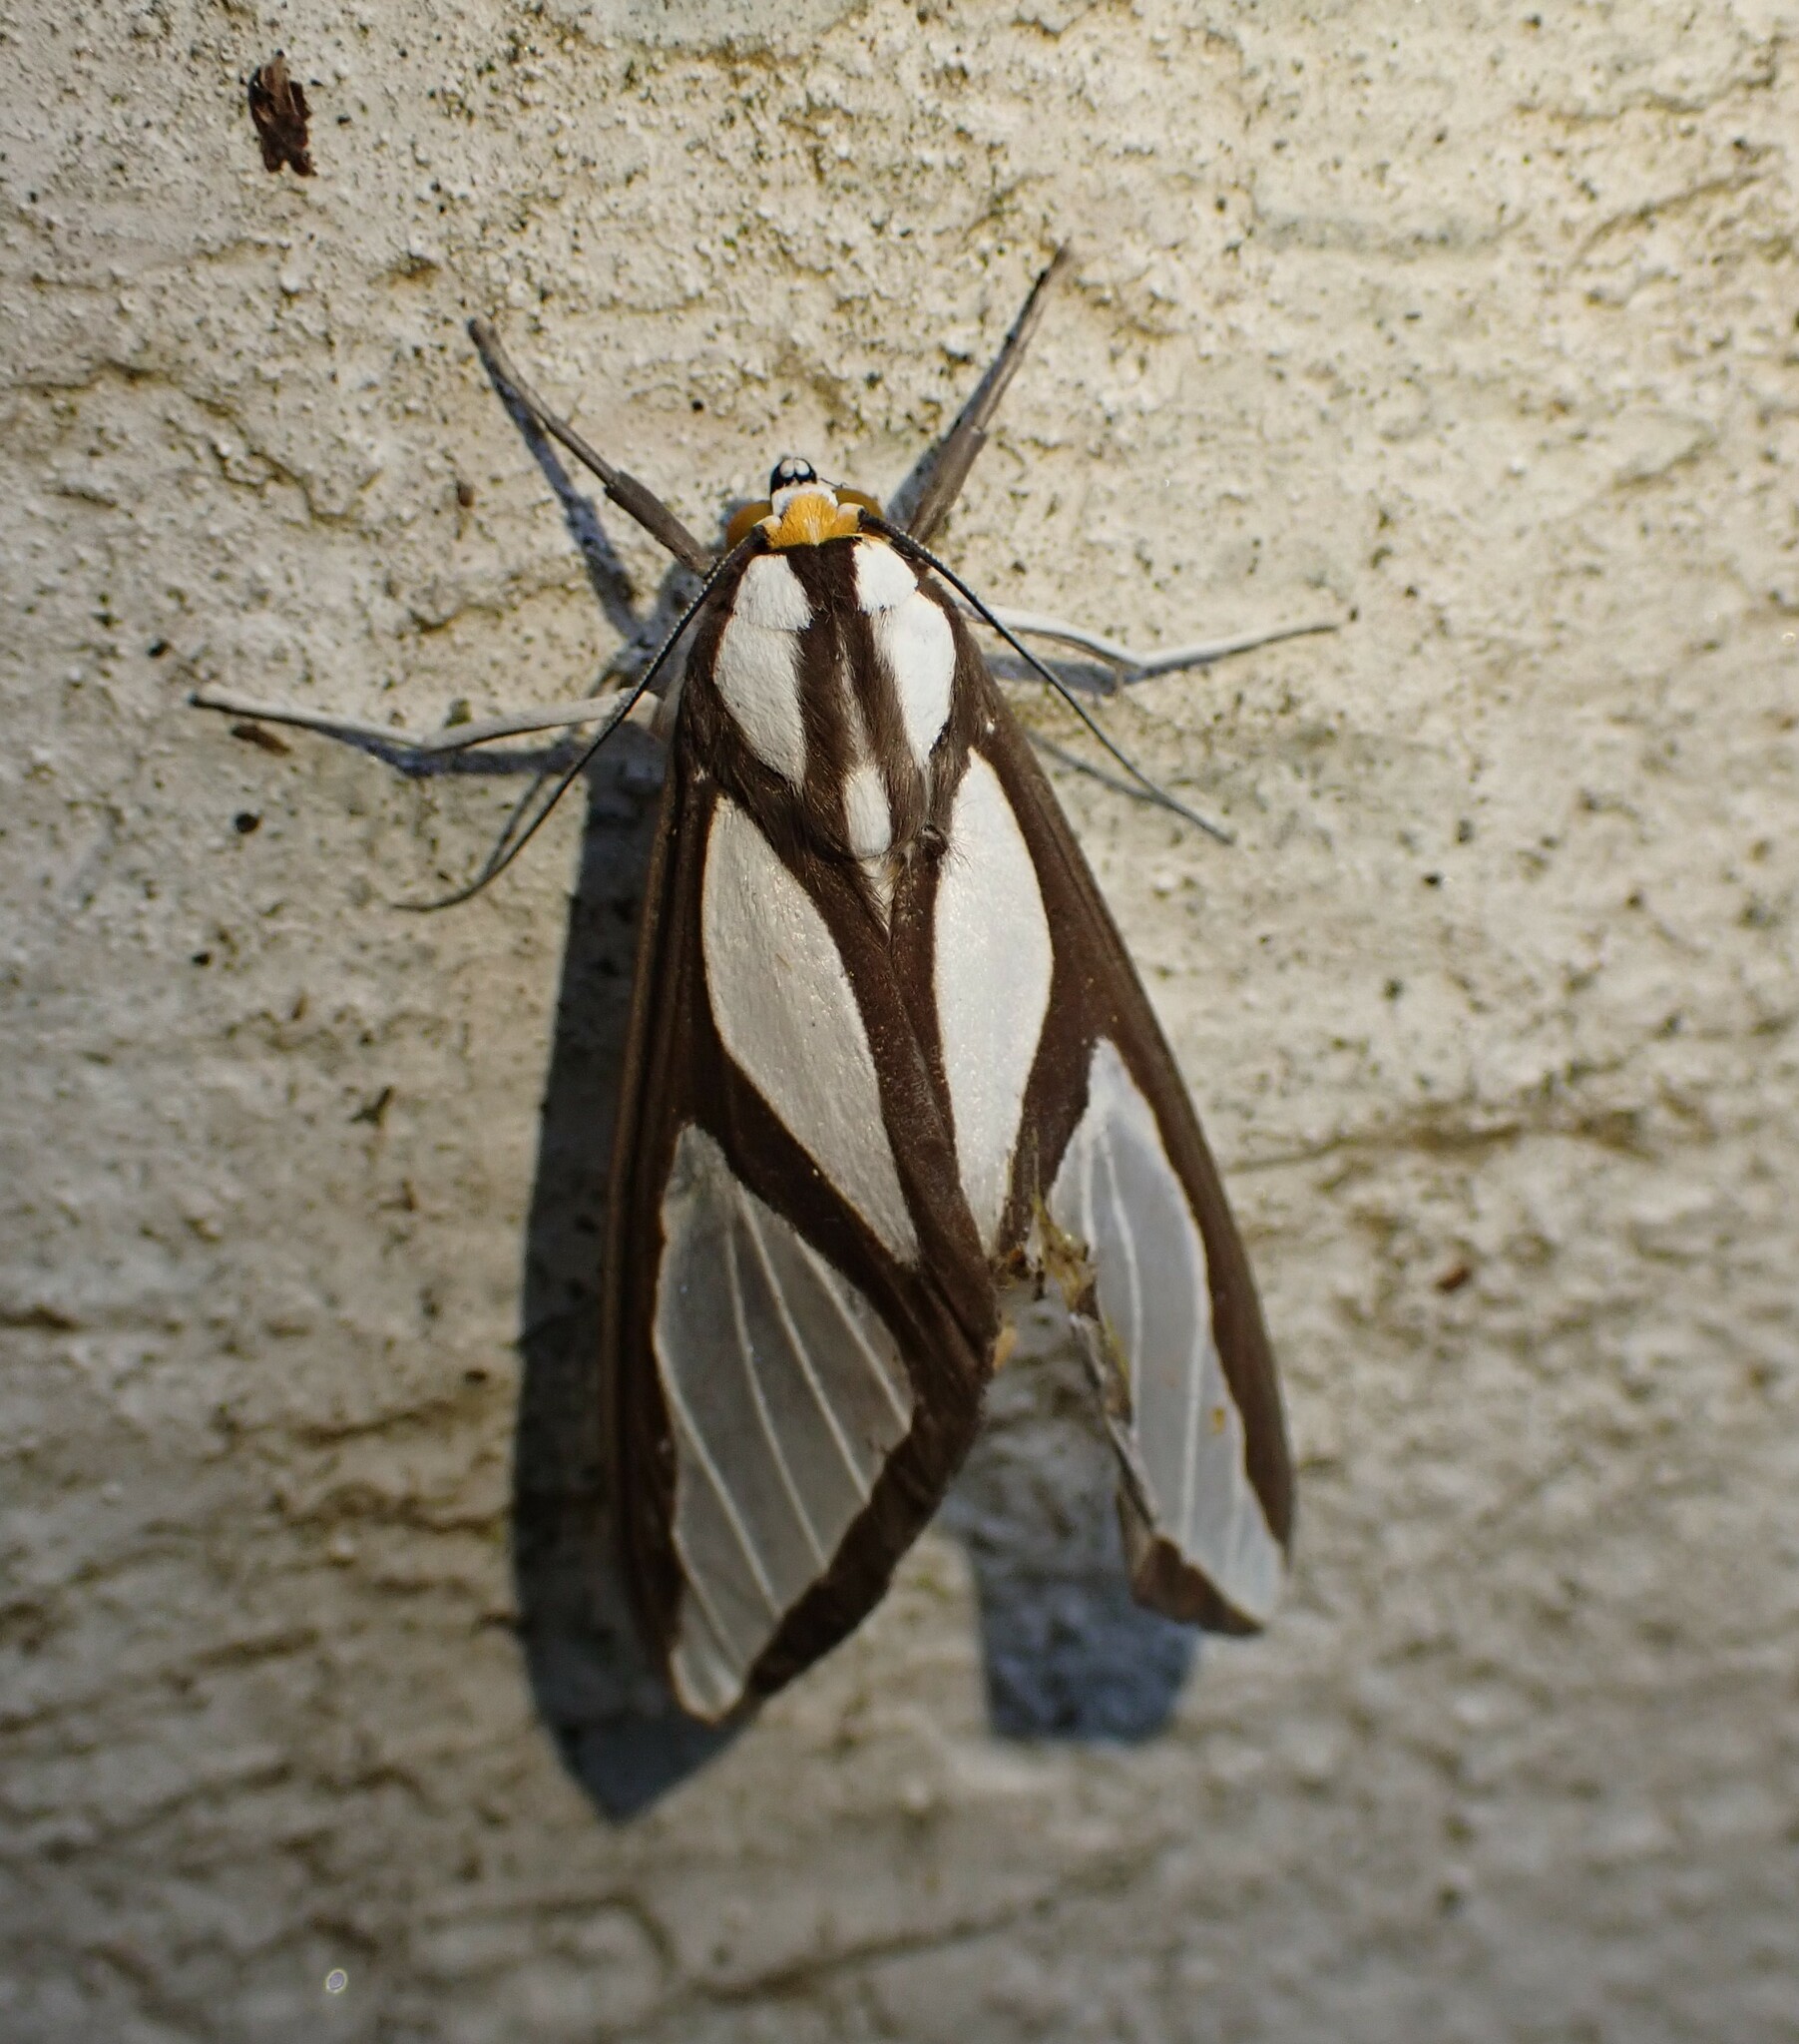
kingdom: Animalia
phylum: Arthropoda
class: Insecta
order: Lepidoptera
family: Erebidae
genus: Robinsonia
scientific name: Robinsonia dewitzi
